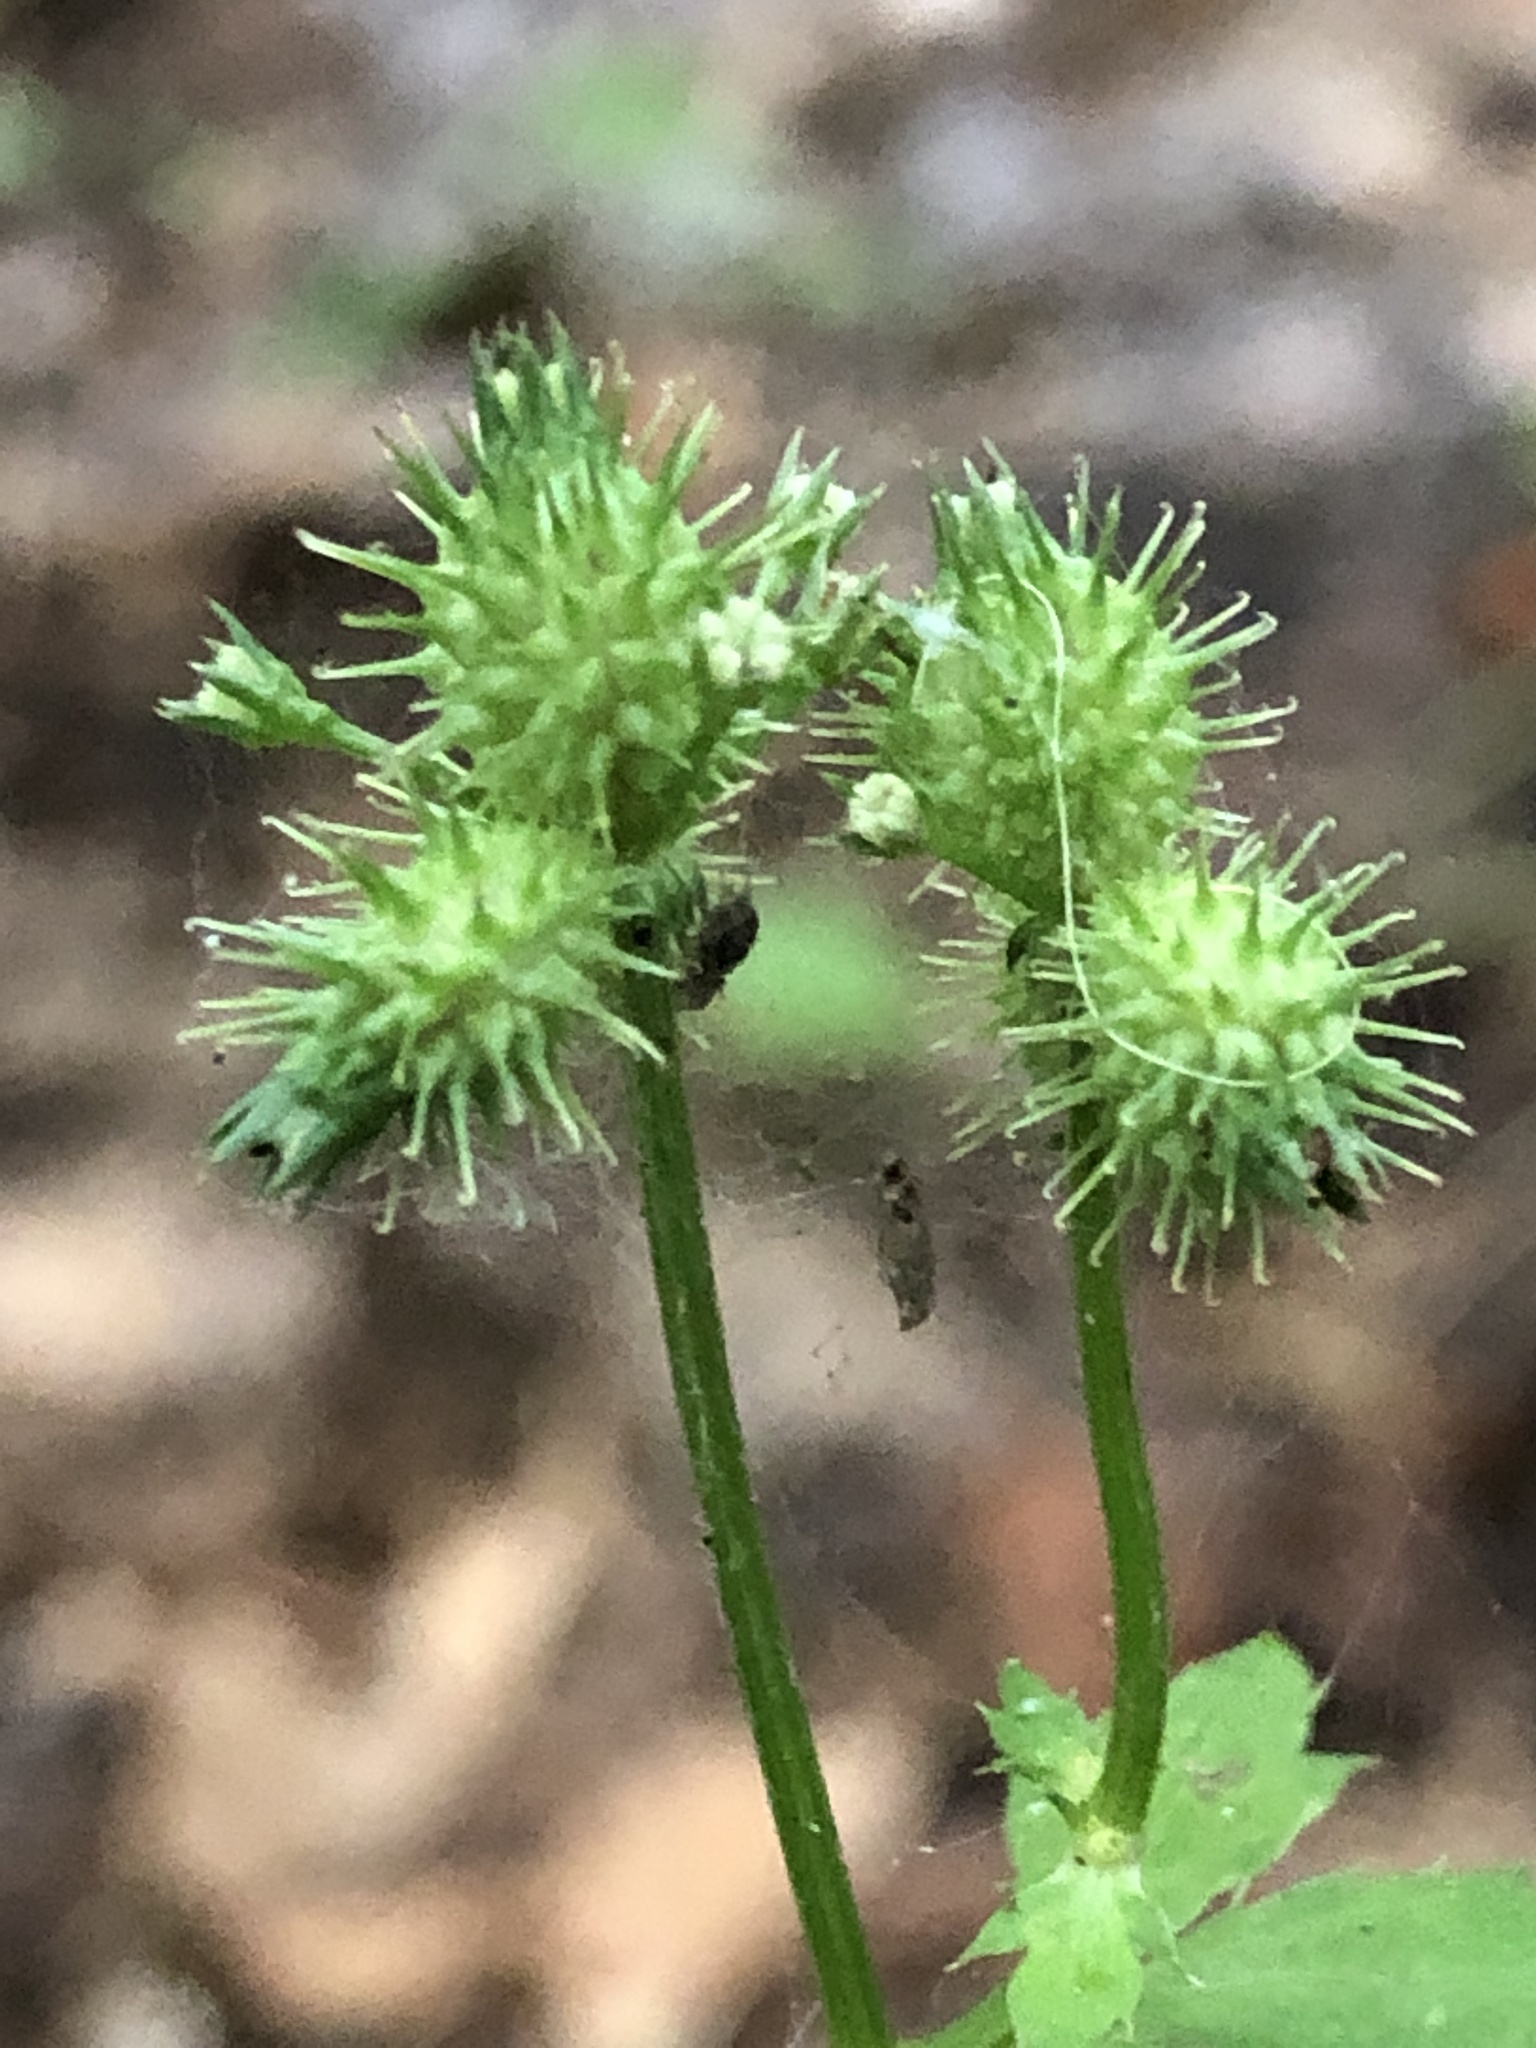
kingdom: Plantae
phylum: Tracheophyta
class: Magnoliopsida
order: Apiales
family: Apiaceae
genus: Sanicula
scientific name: Sanicula trifoliata
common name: Beaked sanicle
